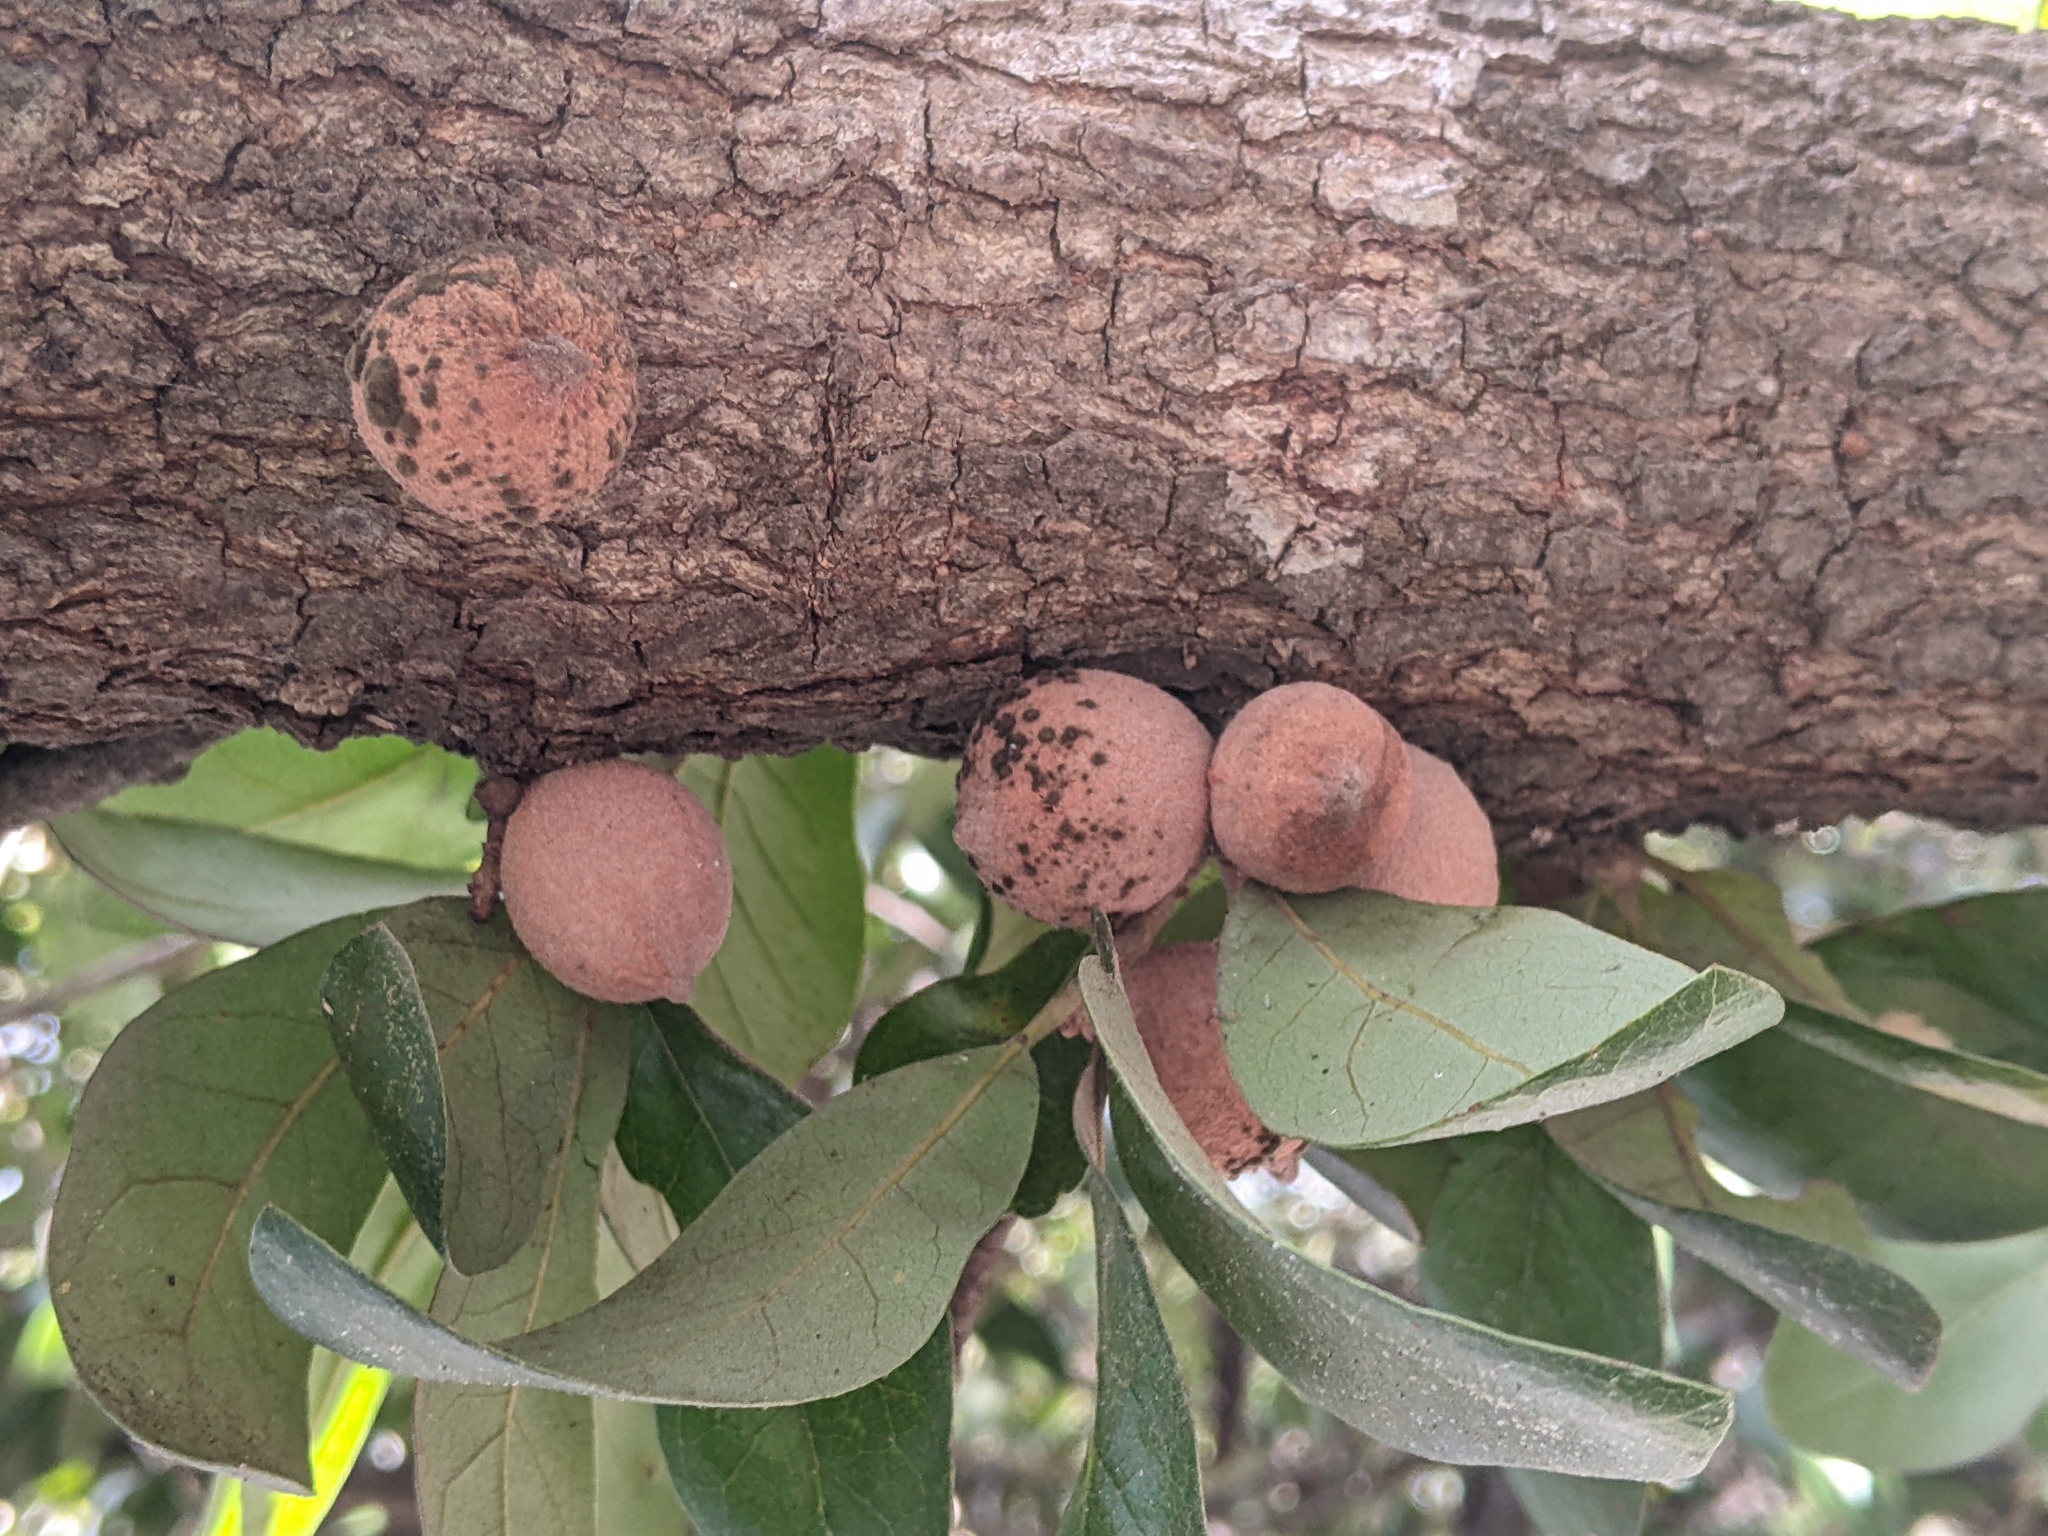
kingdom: Animalia
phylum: Arthropoda
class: Insecta
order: Hymenoptera
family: Cynipidae
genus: Disholcaspis
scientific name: Disholcaspis
